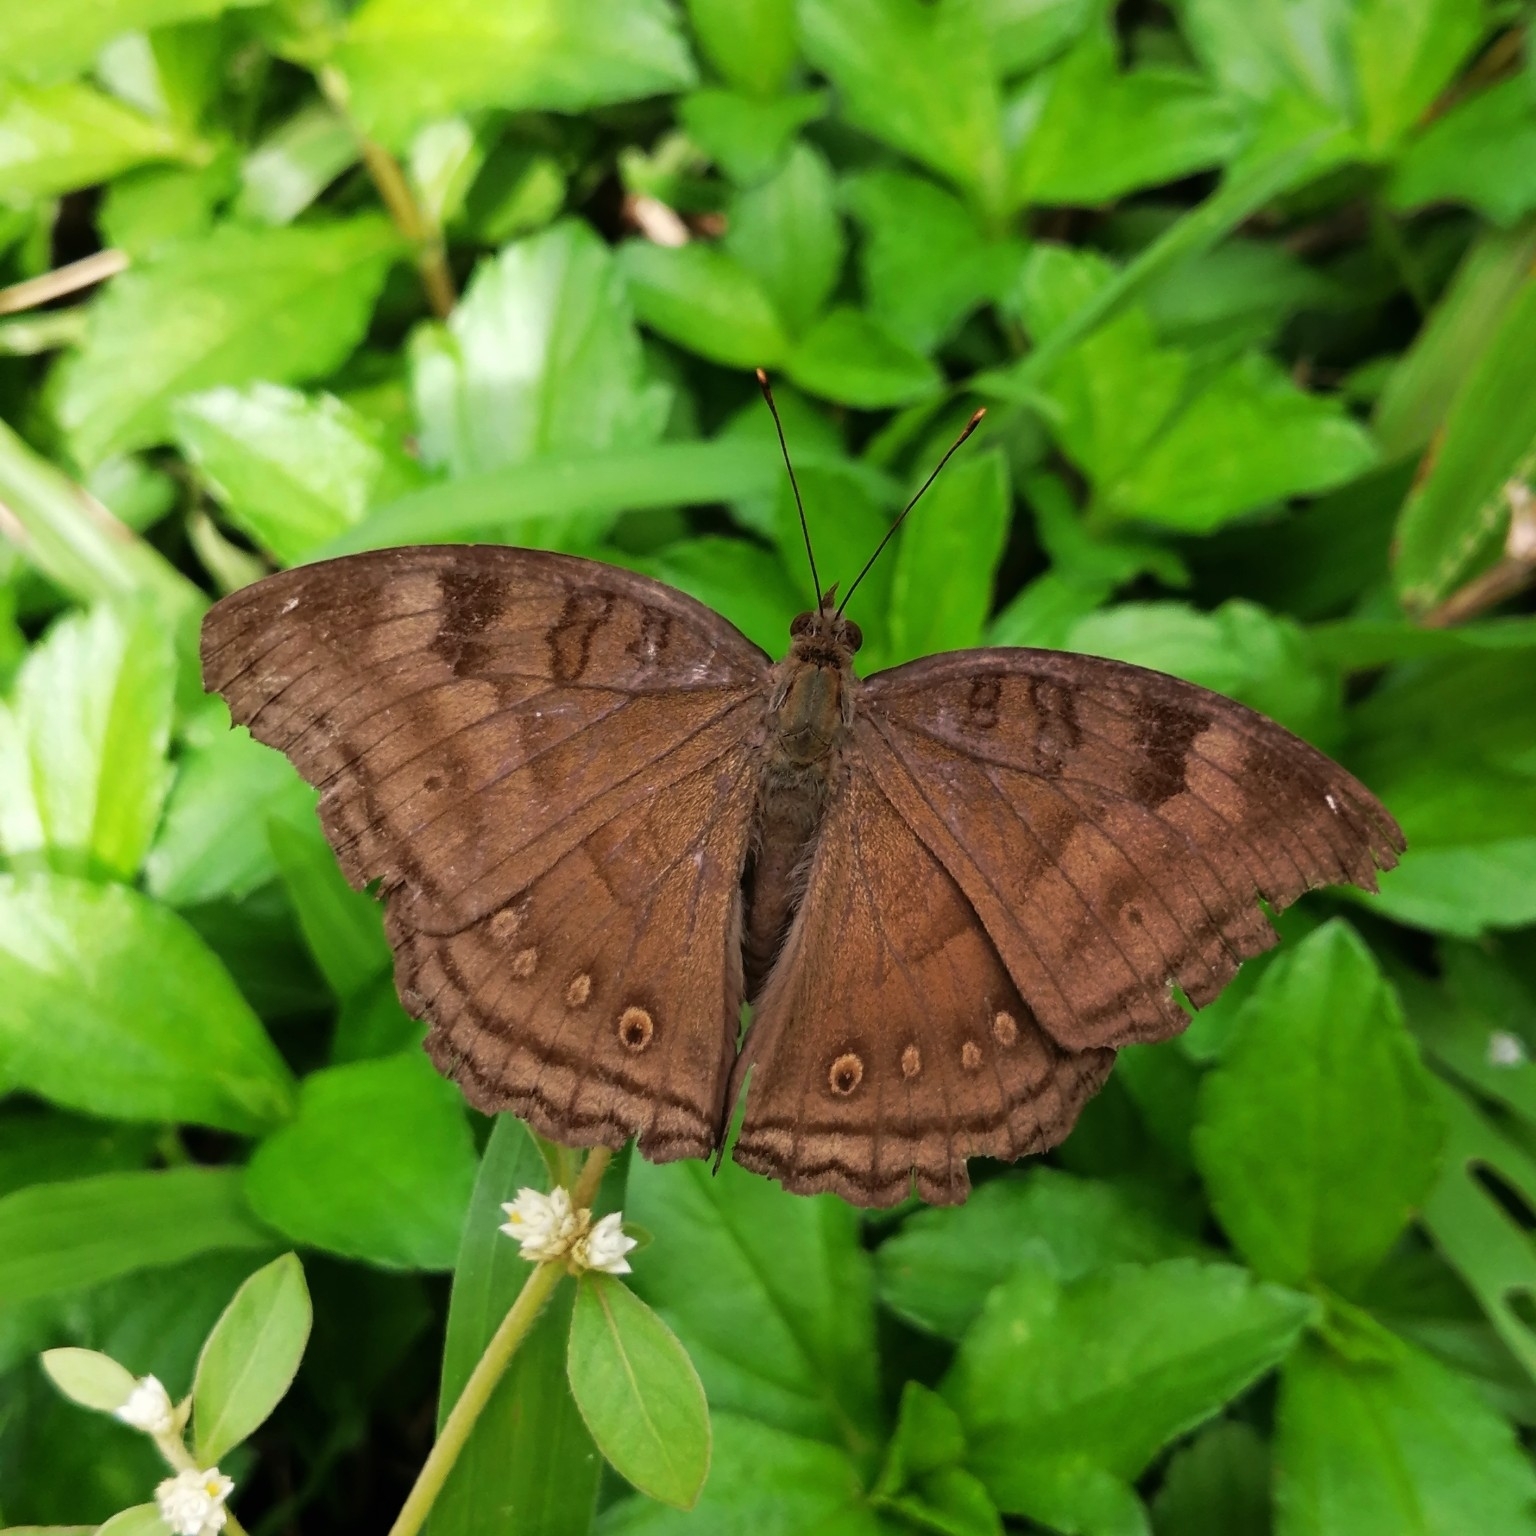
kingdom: Animalia
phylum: Arthropoda
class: Insecta
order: Lepidoptera
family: Nymphalidae
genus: Junonia
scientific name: Junonia iphita
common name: Chocolate pansy
